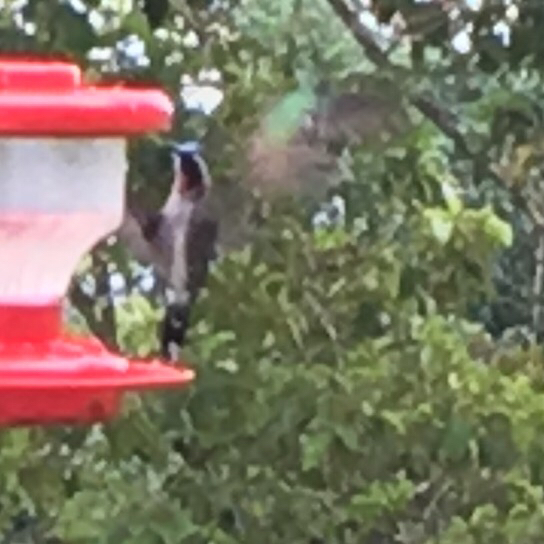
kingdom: Animalia
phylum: Chordata
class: Aves
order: Apodiformes
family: Trochilidae
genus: Heliomaster
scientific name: Heliomaster longirostris
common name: Long-billed starthroat
